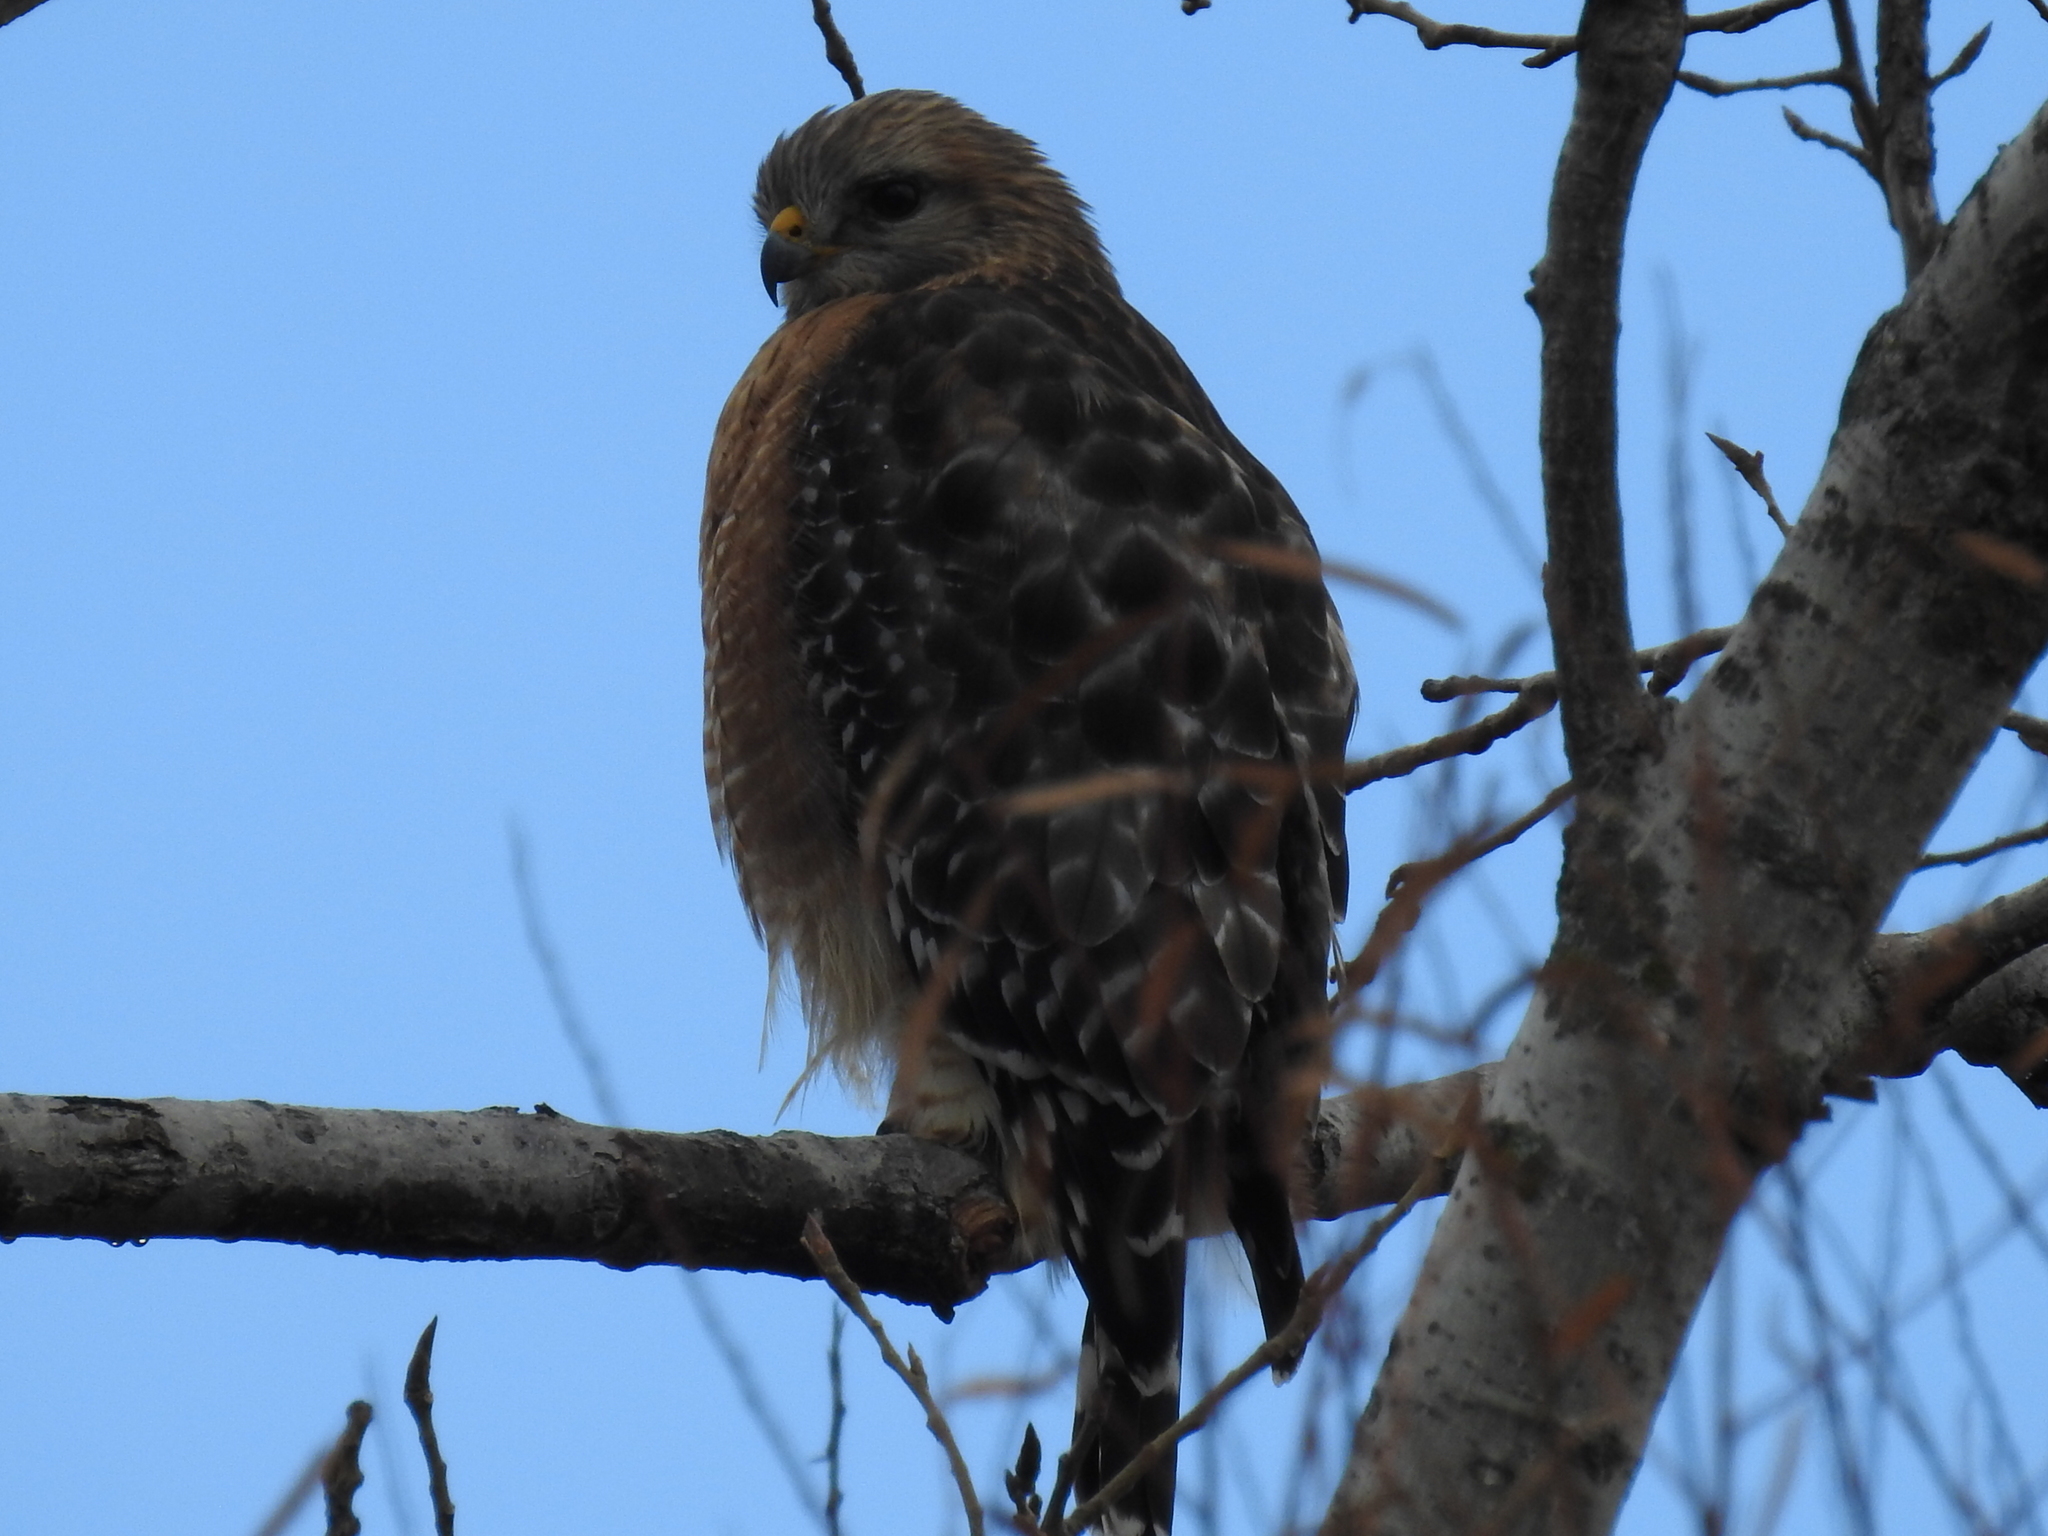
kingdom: Animalia
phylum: Chordata
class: Aves
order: Accipitriformes
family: Accipitridae
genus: Buteo
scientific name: Buteo lineatus
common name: Red-shouldered hawk
